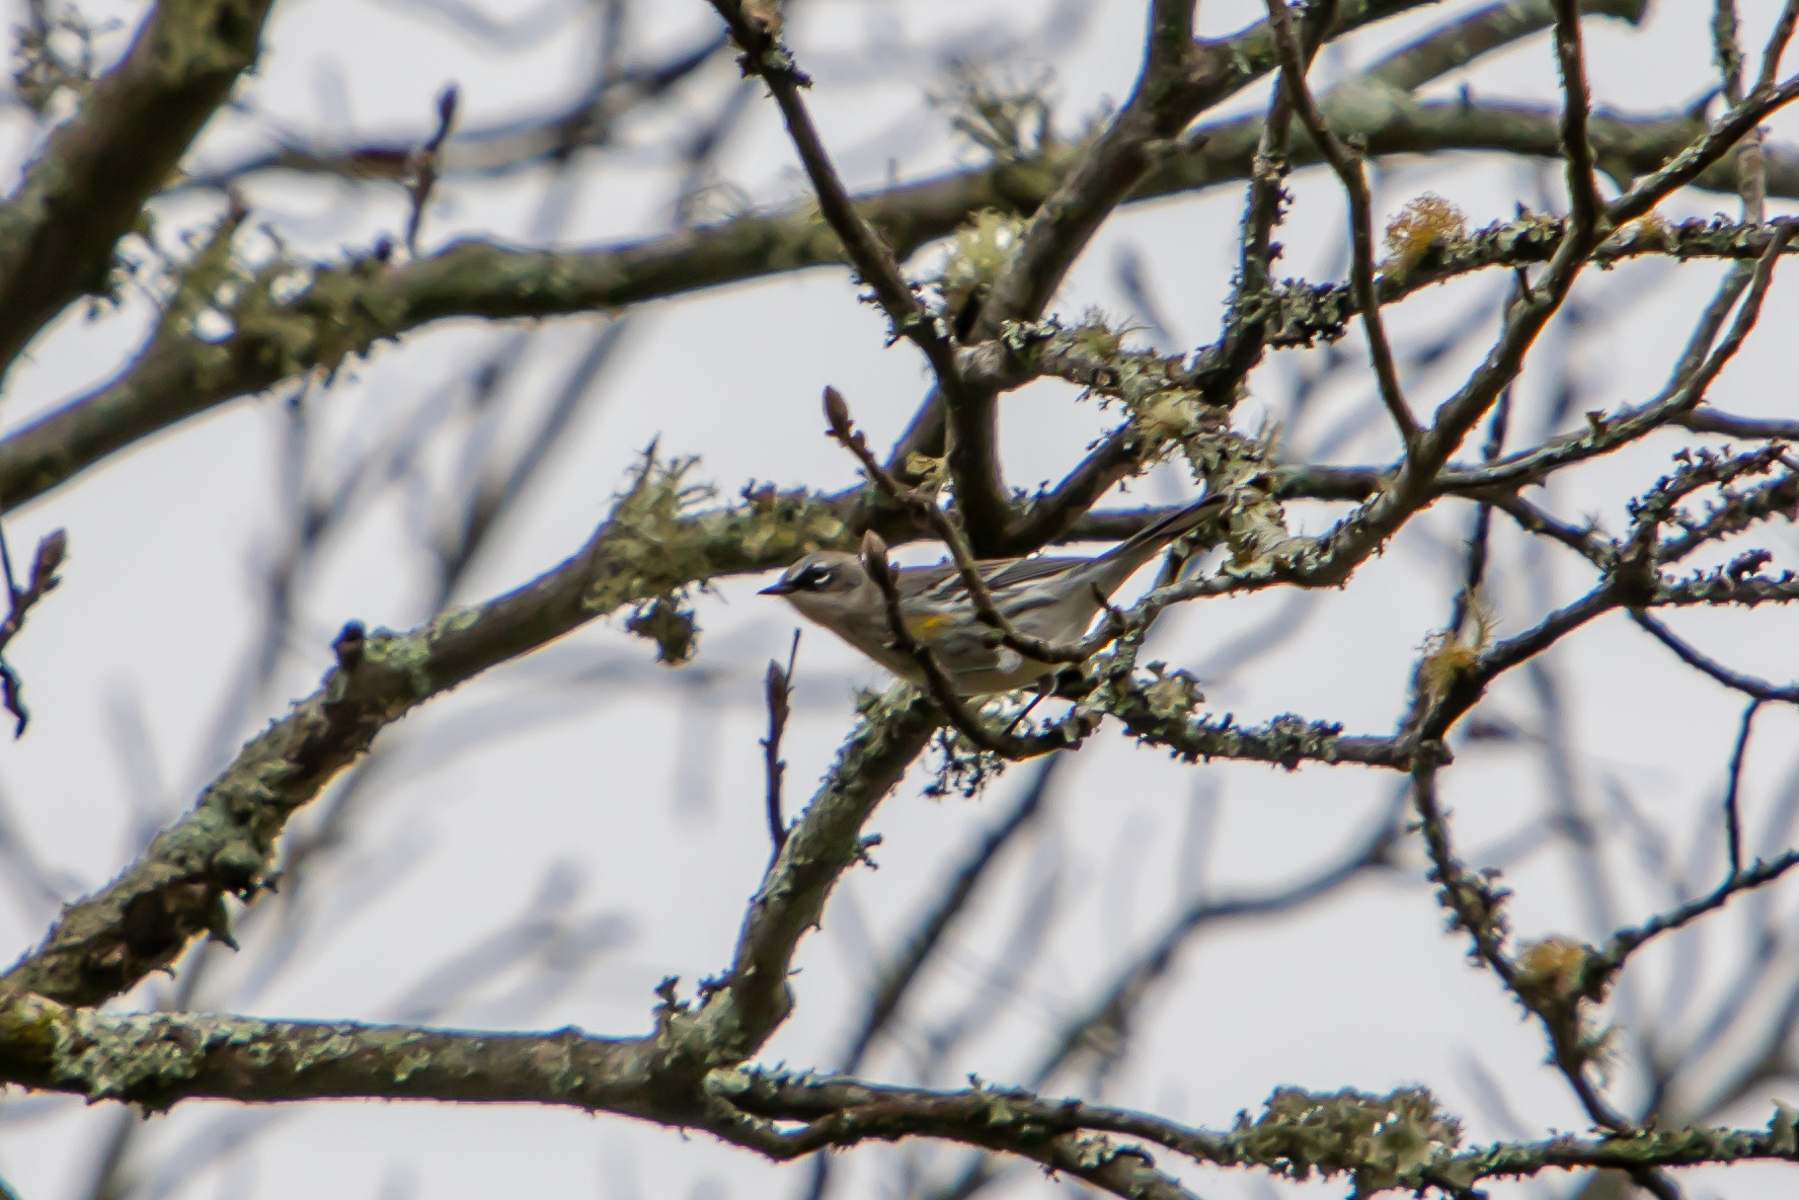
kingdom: Animalia
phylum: Chordata
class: Aves
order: Passeriformes
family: Parulidae
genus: Setophaga
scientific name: Setophaga coronata
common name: Myrtle warbler
